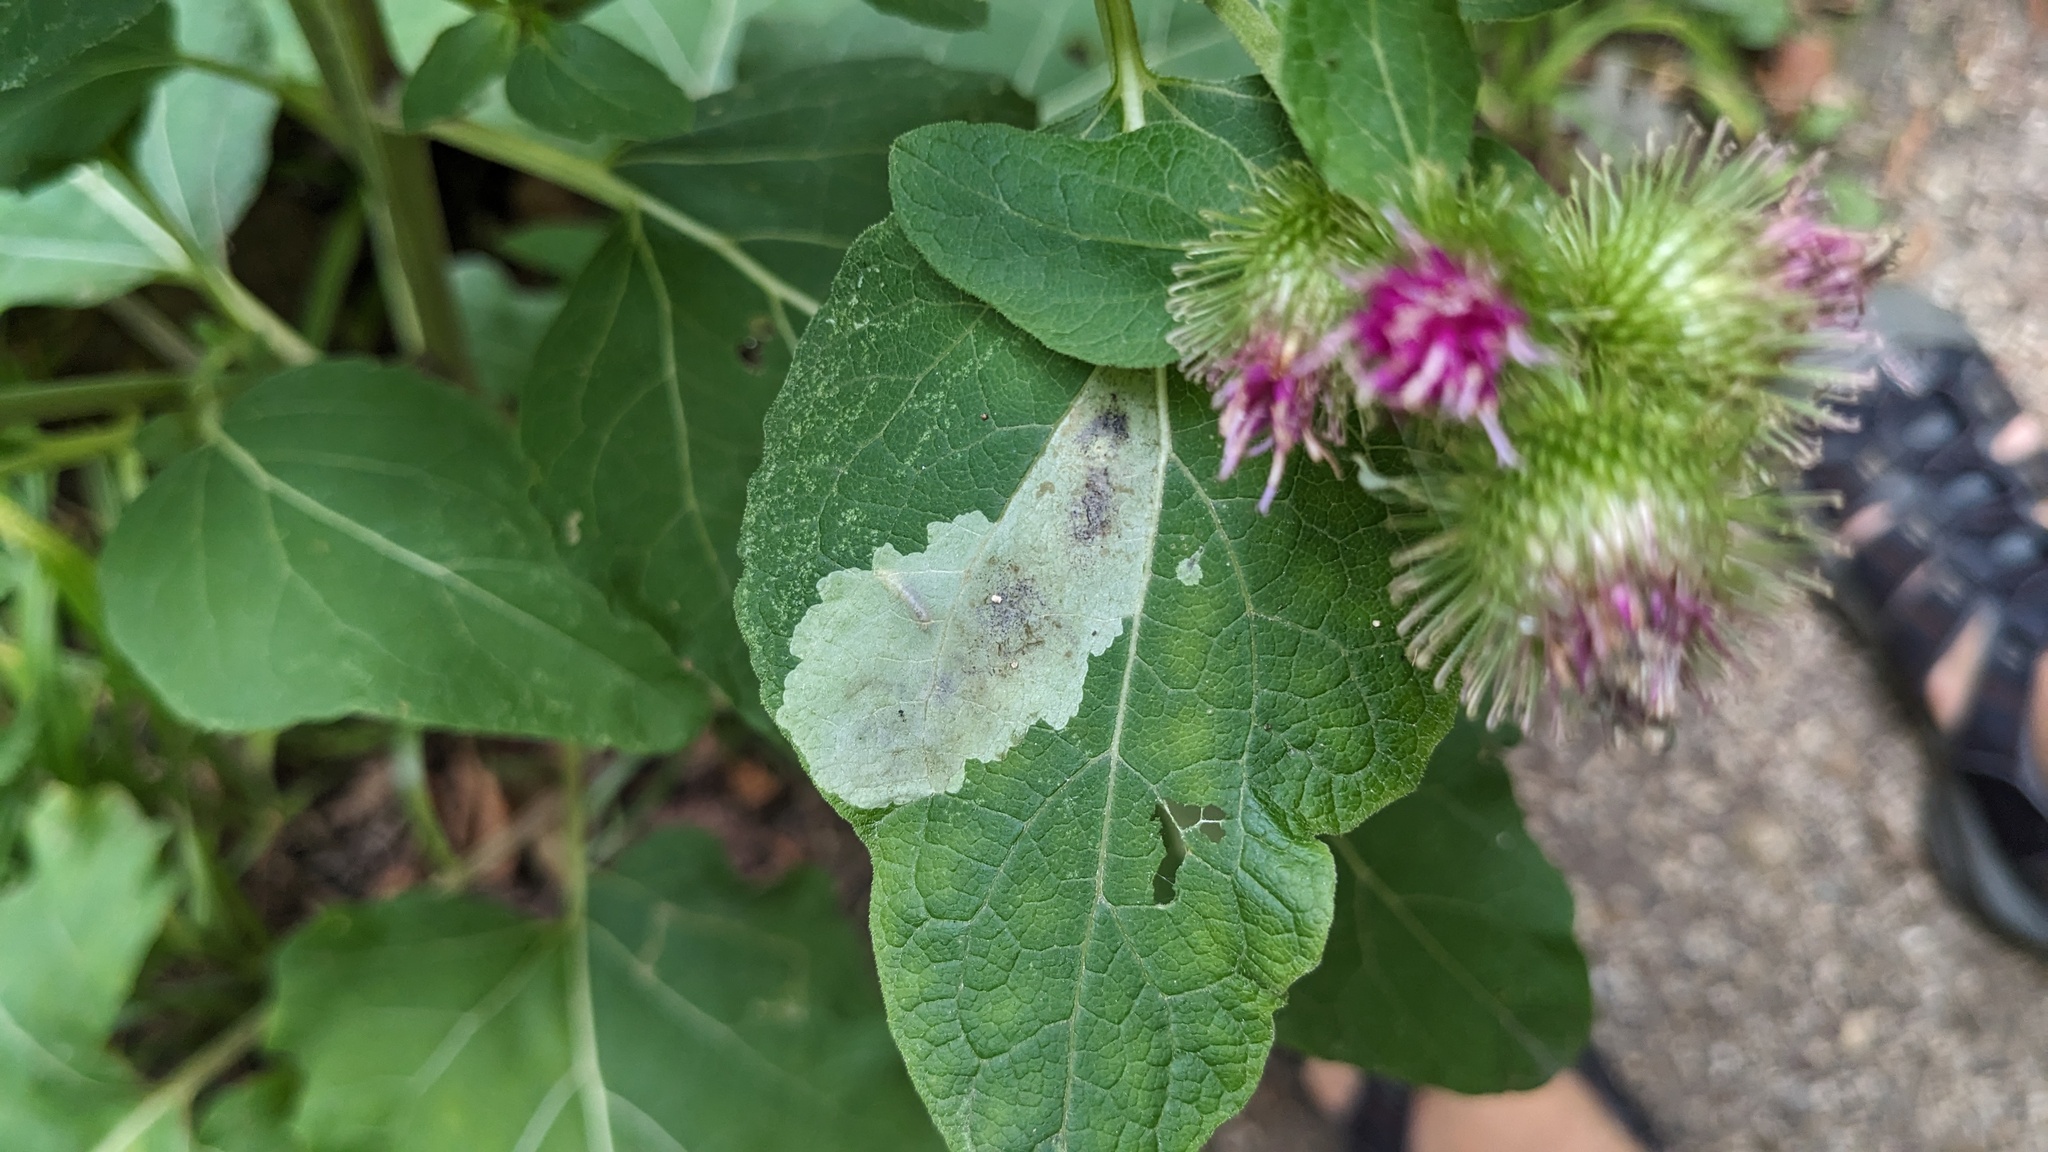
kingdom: Animalia
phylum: Arthropoda
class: Insecta
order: Diptera
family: Agromyzidae
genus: Calycomyza
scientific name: Calycomyza flavinotum
